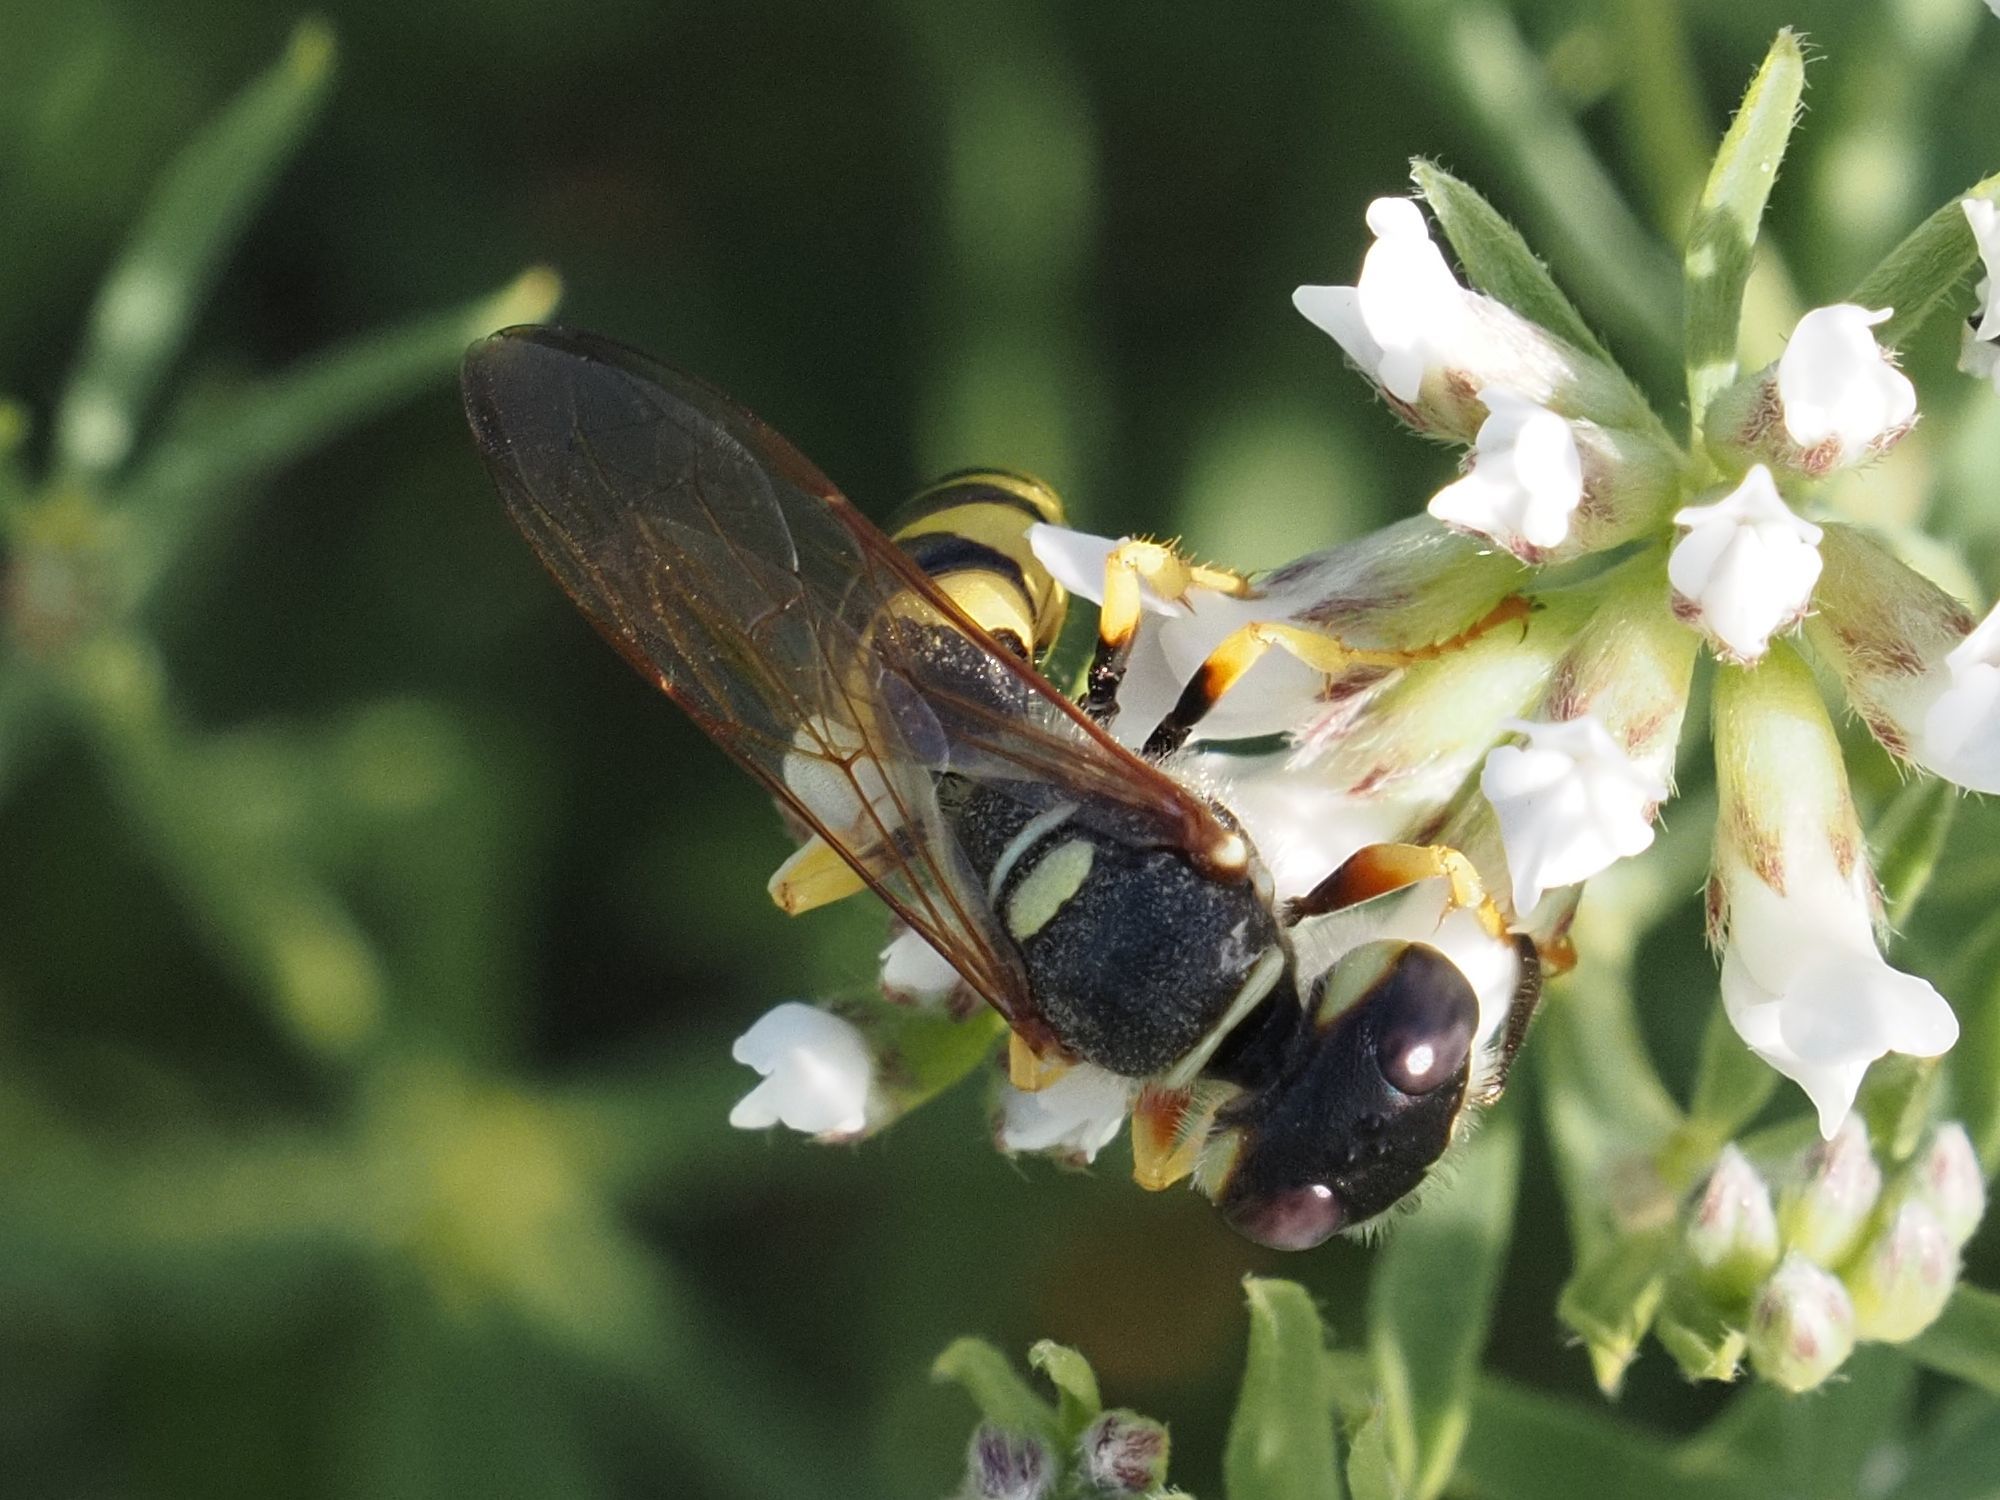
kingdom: Animalia
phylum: Arthropoda
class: Insecta
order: Hymenoptera
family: Crabronidae
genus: Philanthus
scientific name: Philanthus triangulum
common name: Bee wolf
